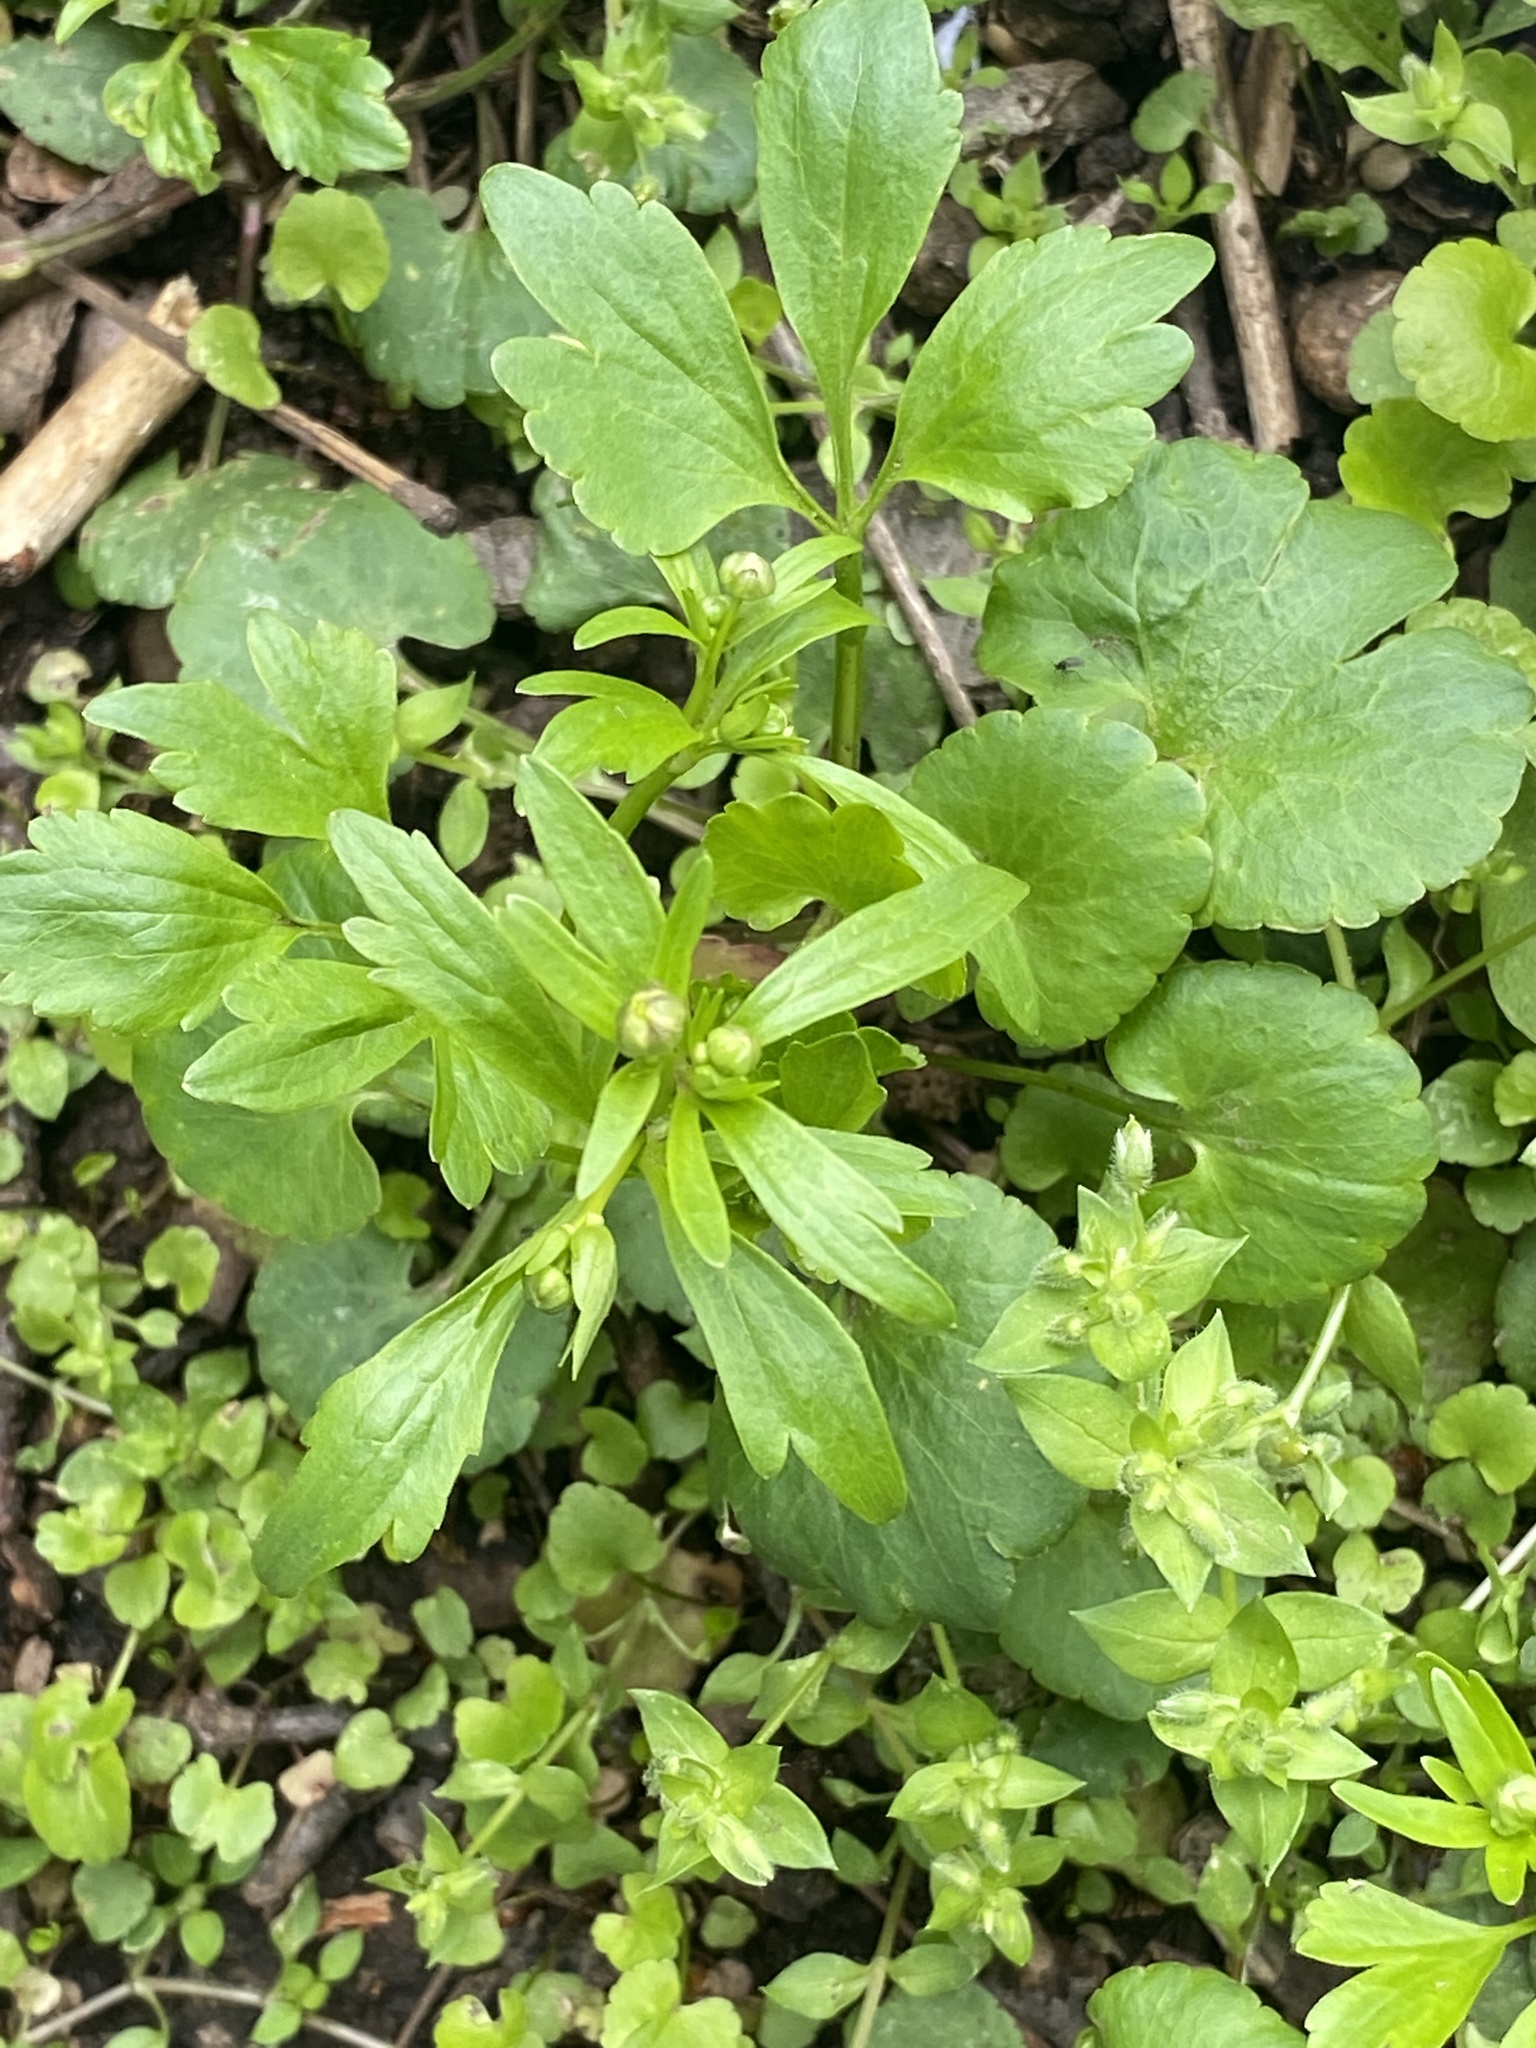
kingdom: Plantae
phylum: Tracheophyta
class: Magnoliopsida
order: Ranunculales
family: Ranunculaceae
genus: Ranunculus
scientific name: Ranunculus abortivus
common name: Early wood buttercup
